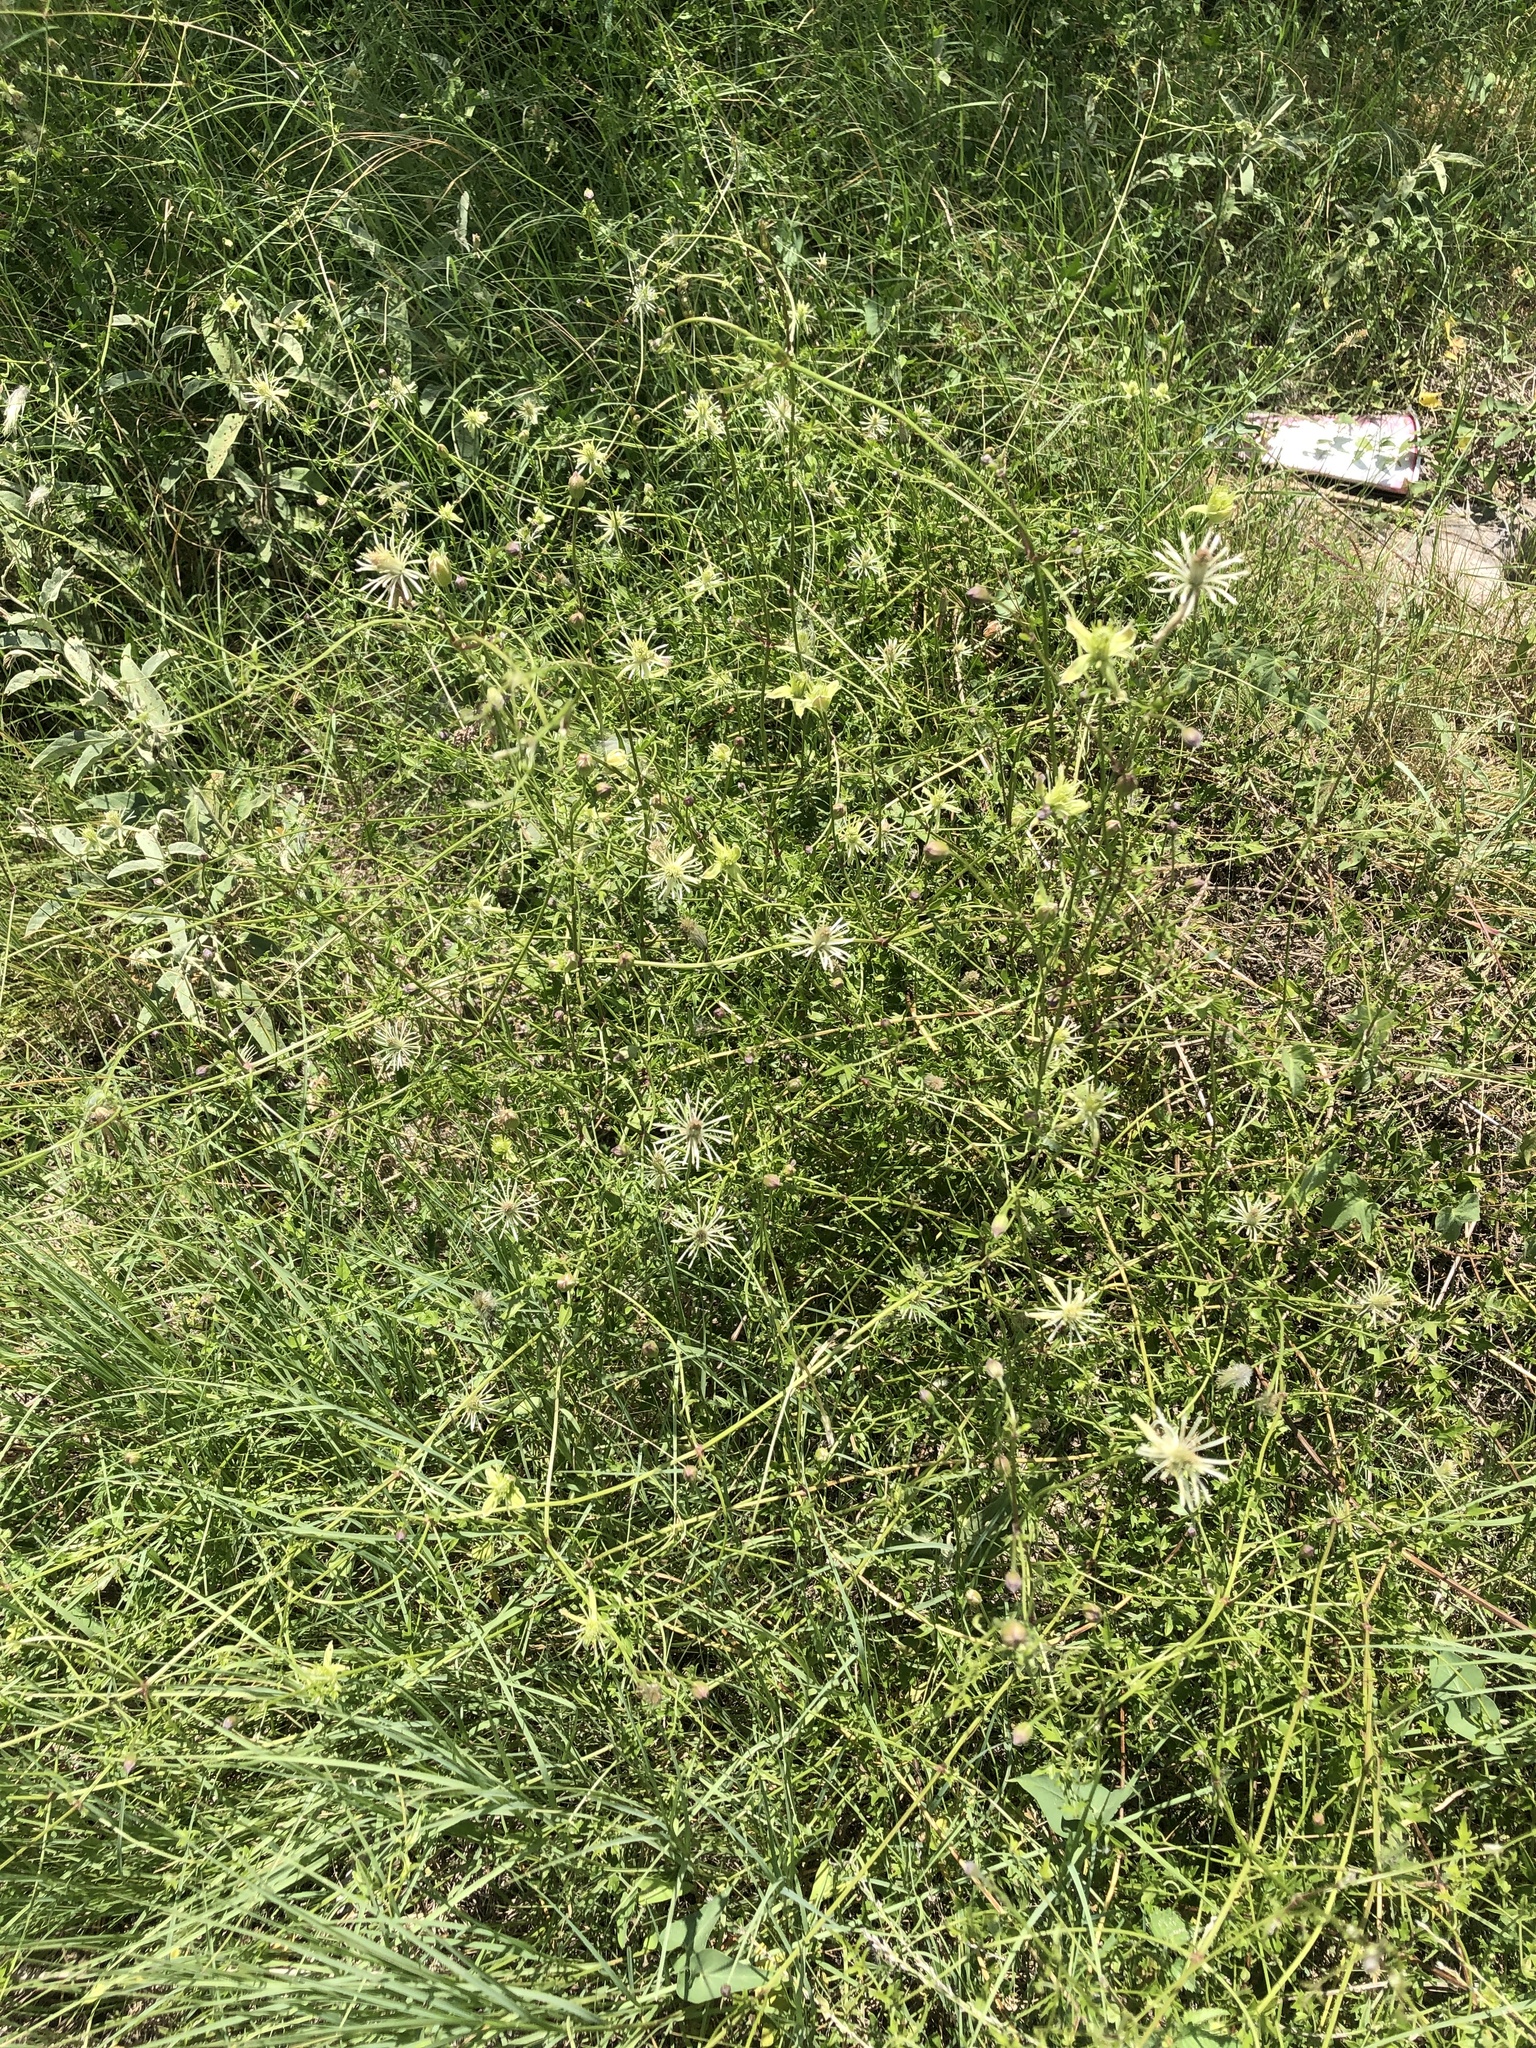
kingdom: Plantae
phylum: Tracheophyta
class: Magnoliopsida
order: Ranunculales
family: Ranunculaceae
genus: Clematis
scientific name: Clematis drummondii
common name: Texas virgin's bower
